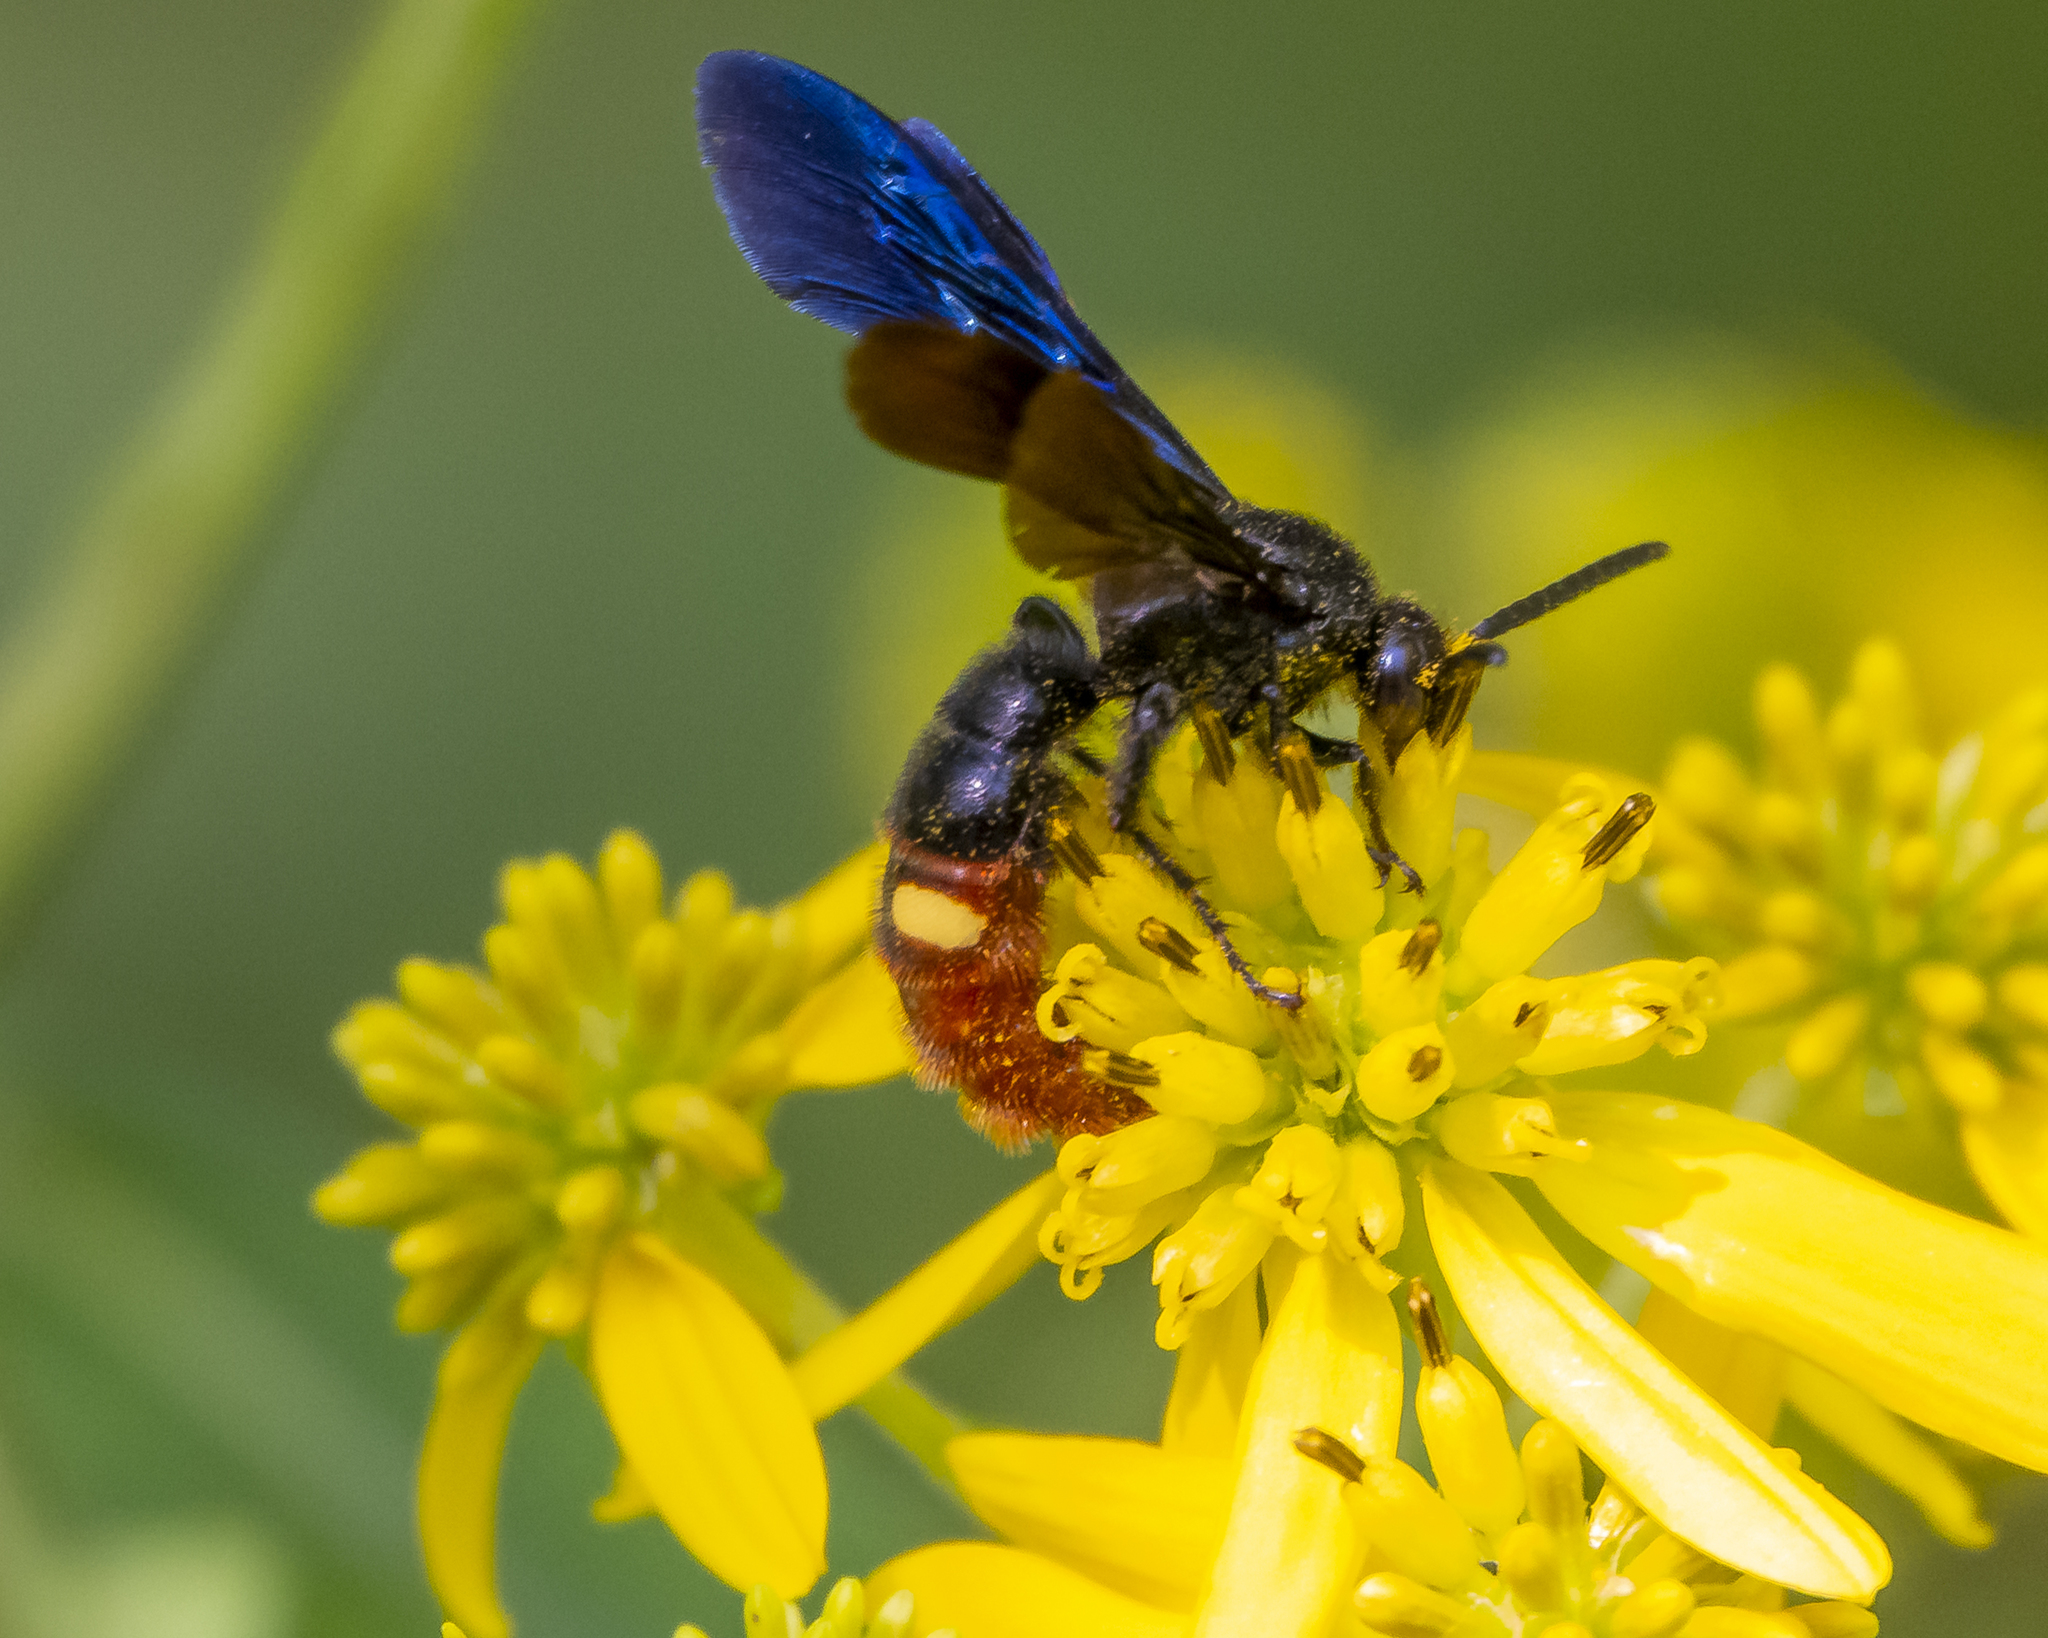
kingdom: Animalia
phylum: Arthropoda
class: Insecta
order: Hymenoptera
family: Scoliidae
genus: Scolia
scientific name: Scolia dubia
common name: Blue-winged scoliid wasp
